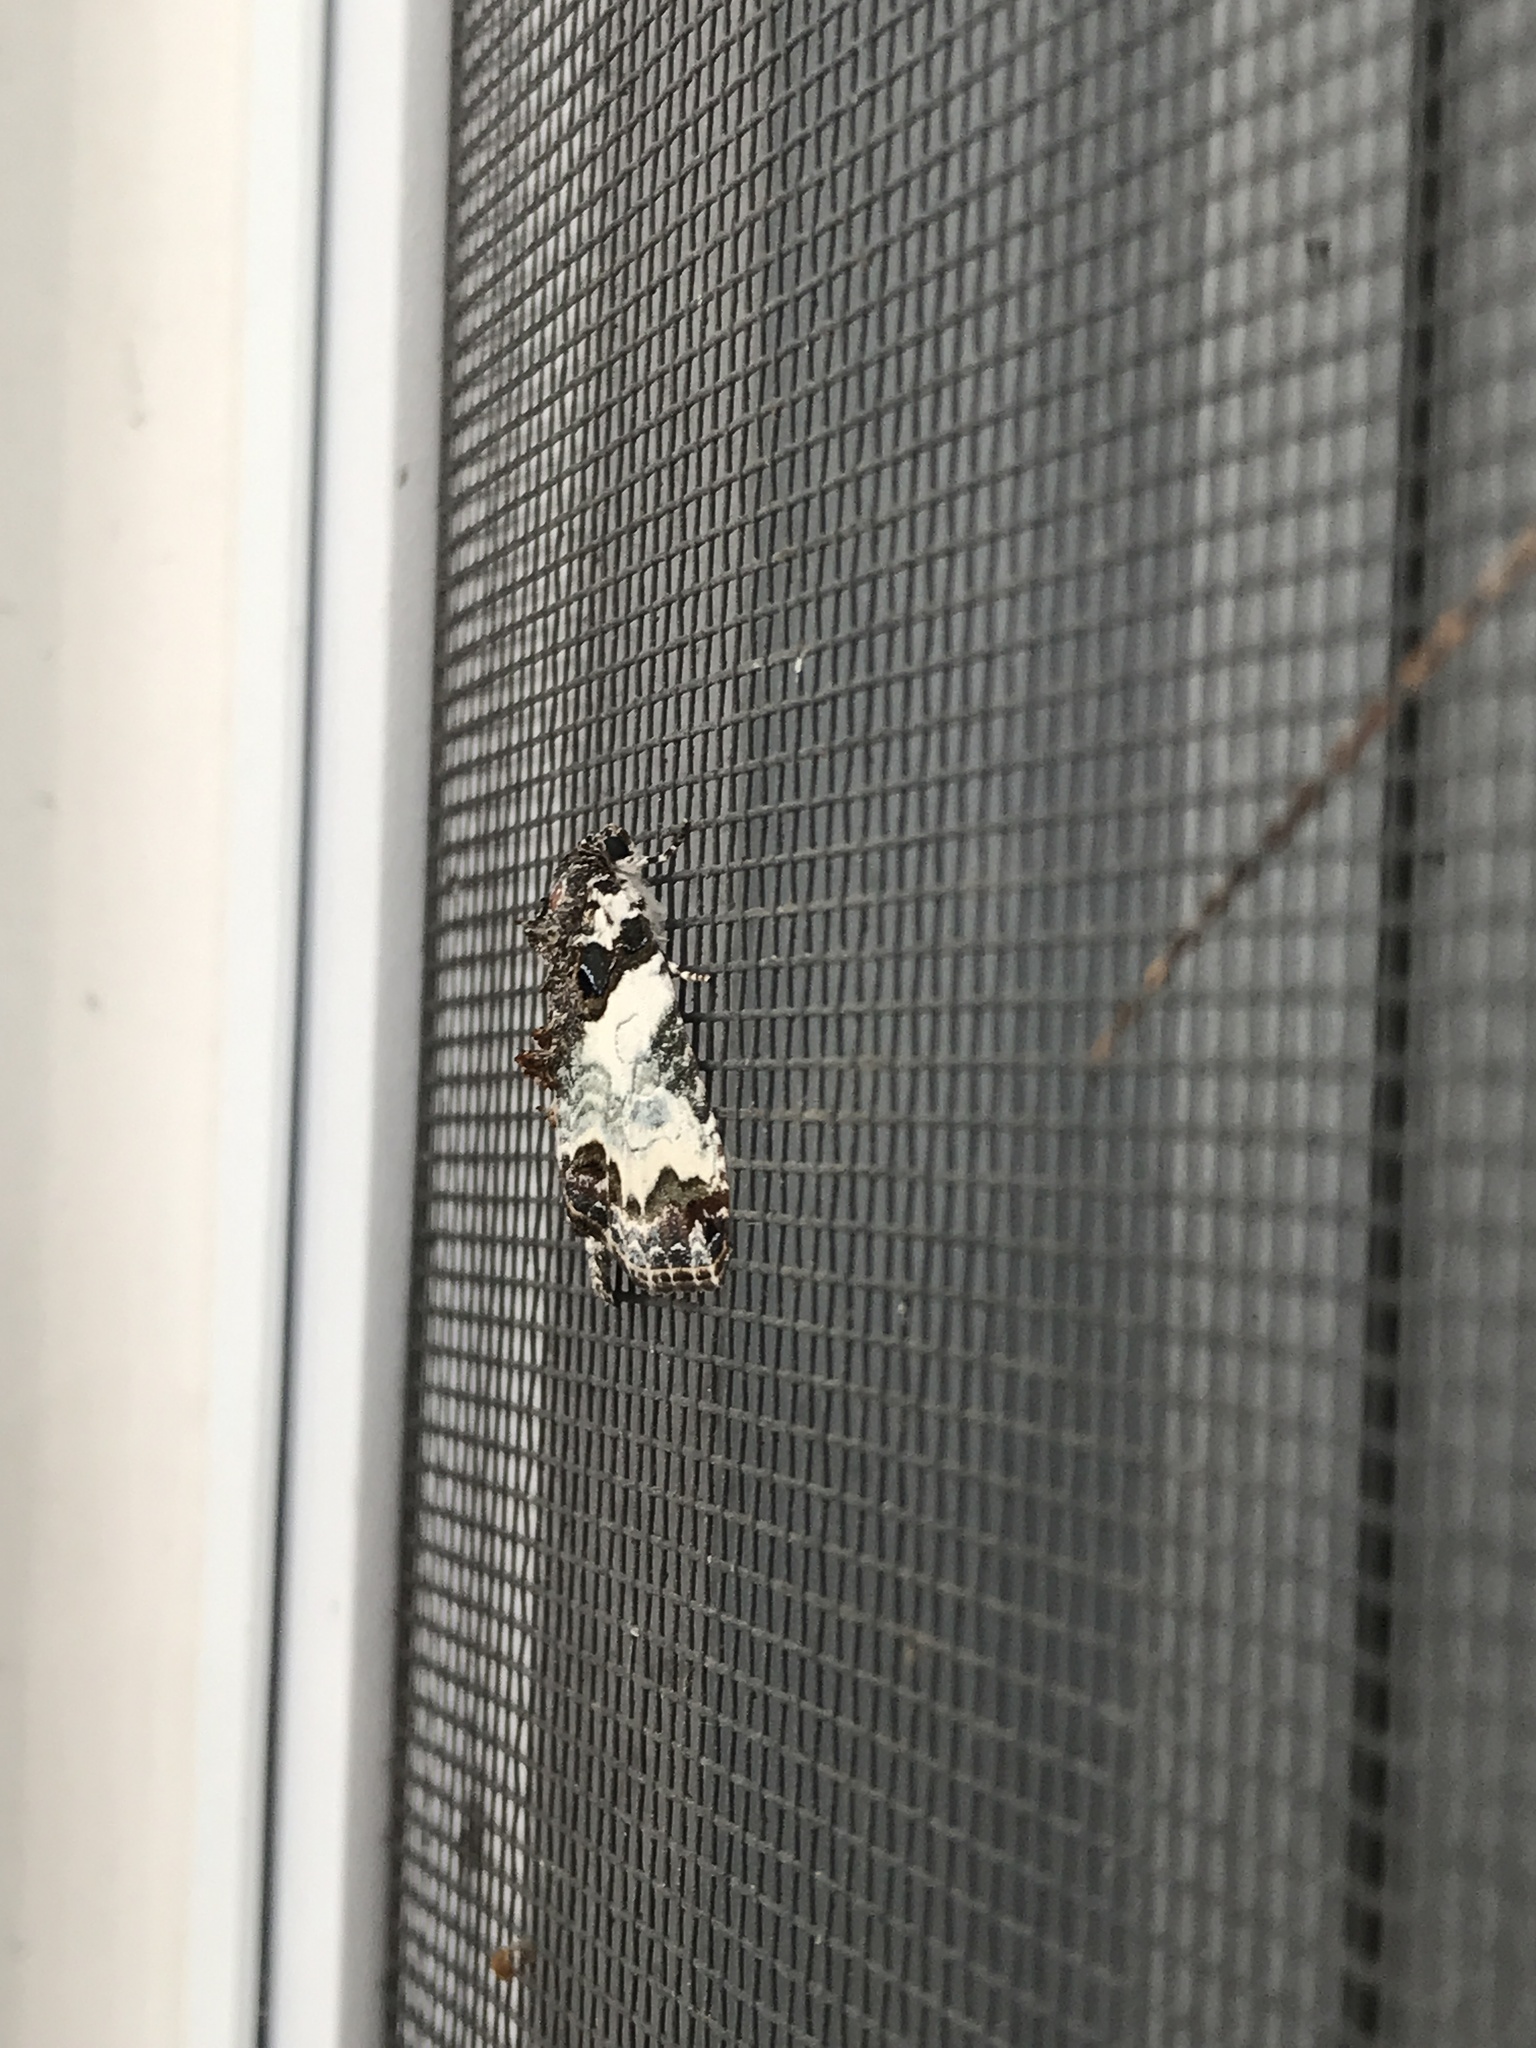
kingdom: Animalia
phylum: Arthropoda
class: Insecta
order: Lepidoptera
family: Noctuidae
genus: Cerma
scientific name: Cerma cerintha
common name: Tufted bird-dropping moth
